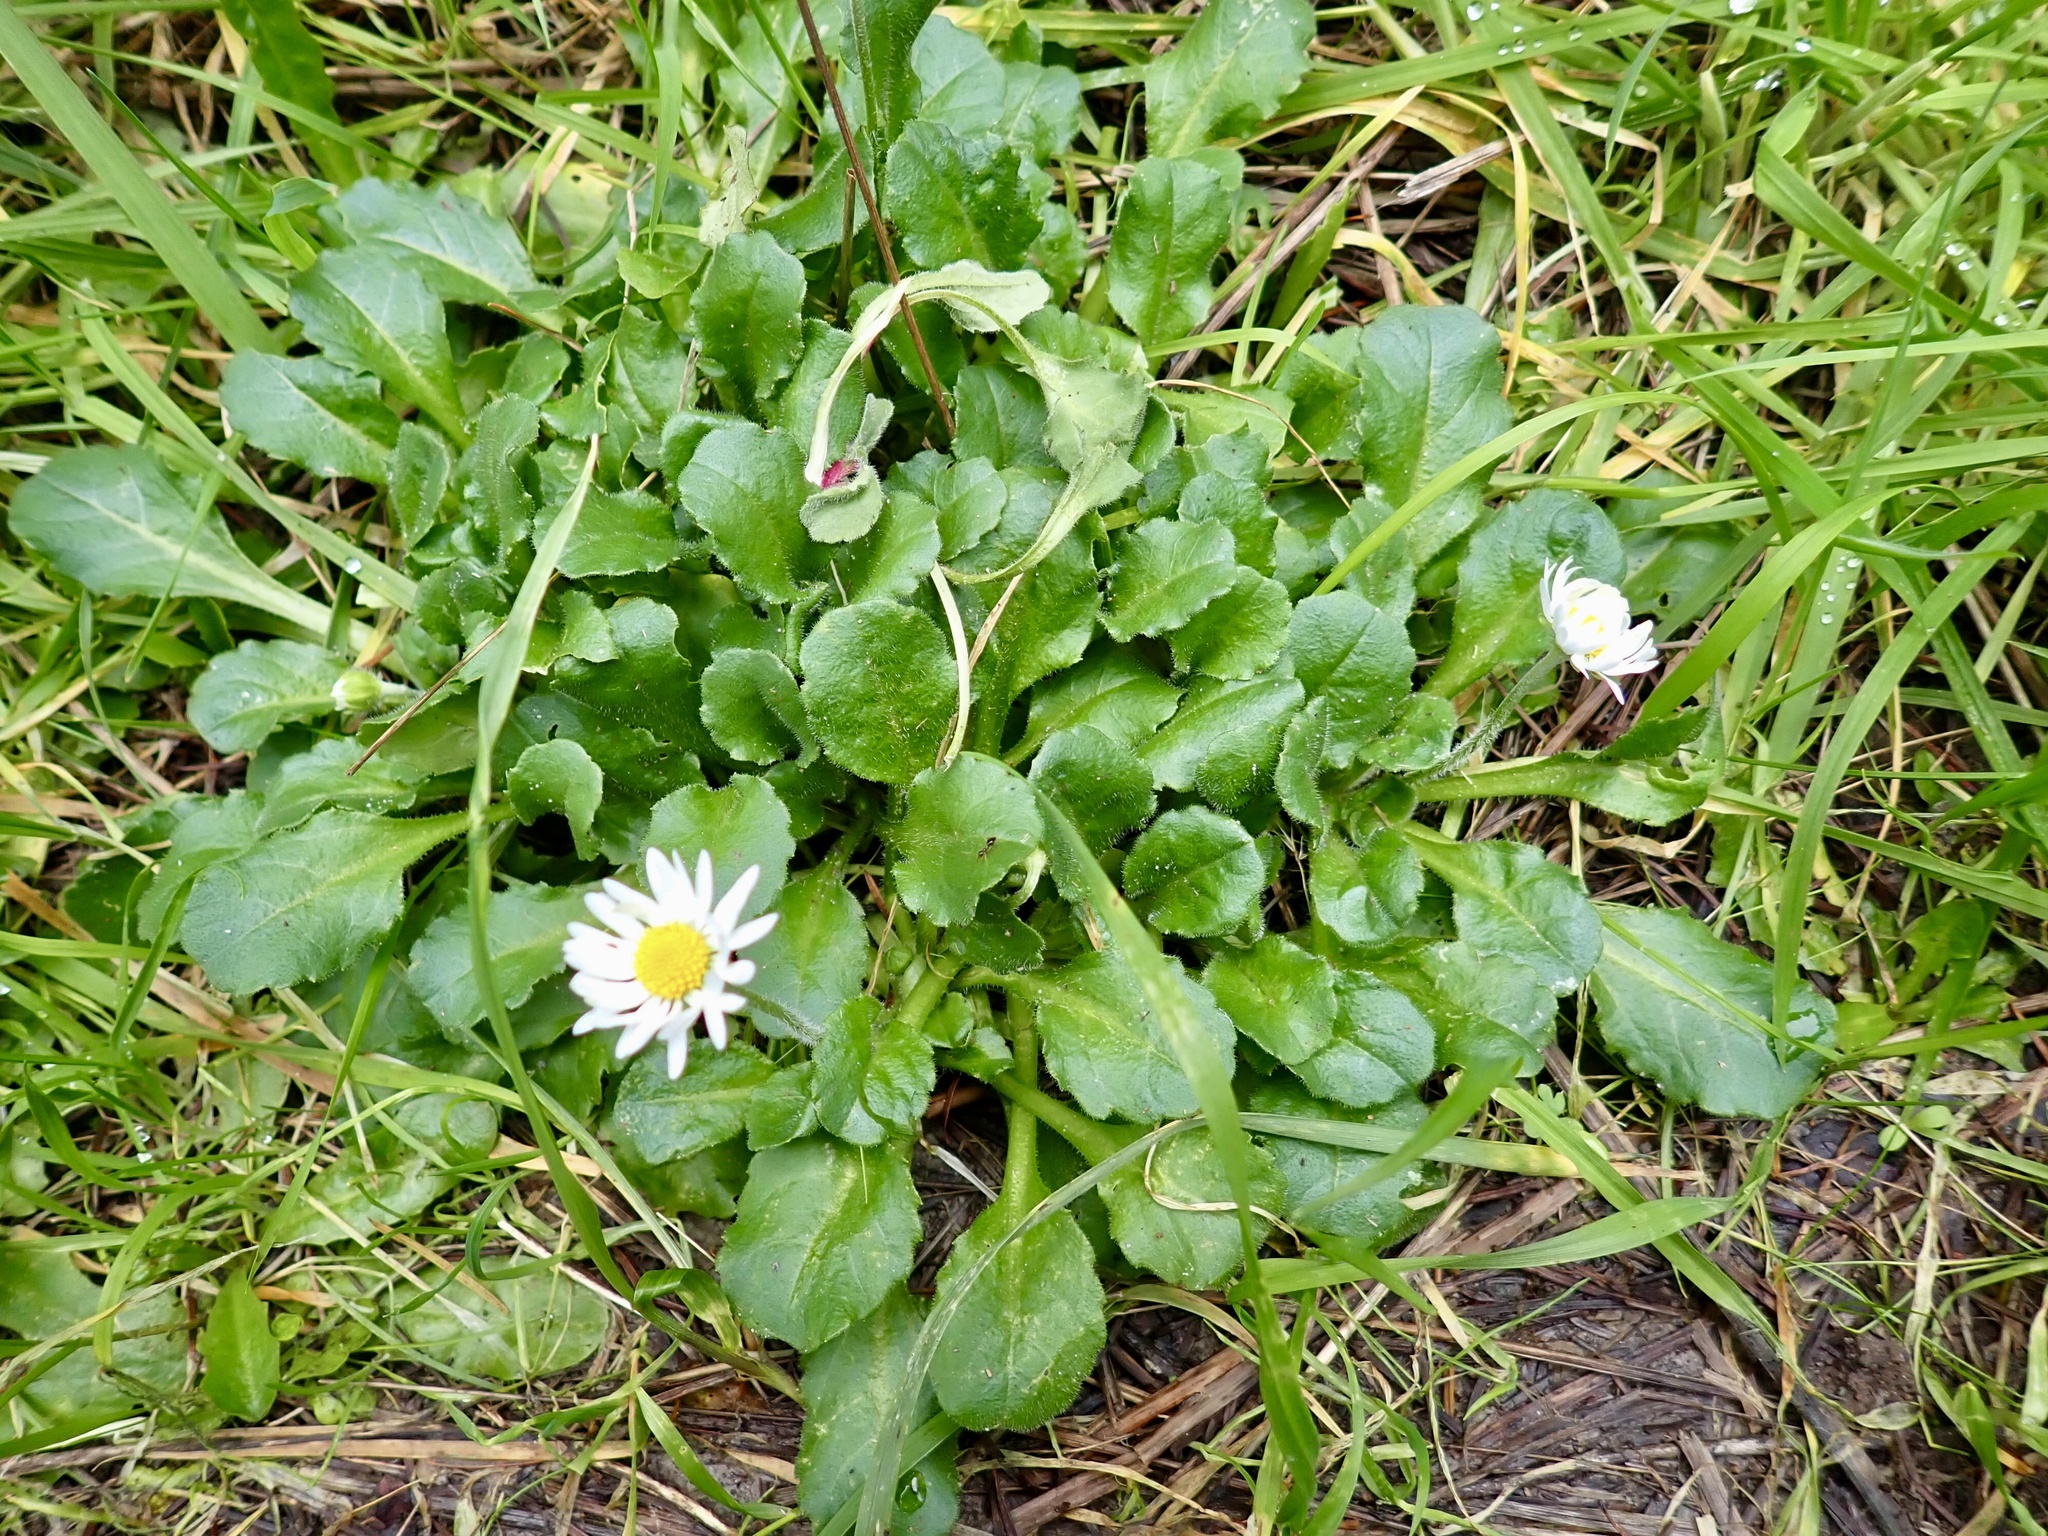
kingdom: Plantae
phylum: Tracheophyta
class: Magnoliopsida
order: Asterales
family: Asteraceae
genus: Bellis
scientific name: Bellis perennis
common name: Lawndaisy
